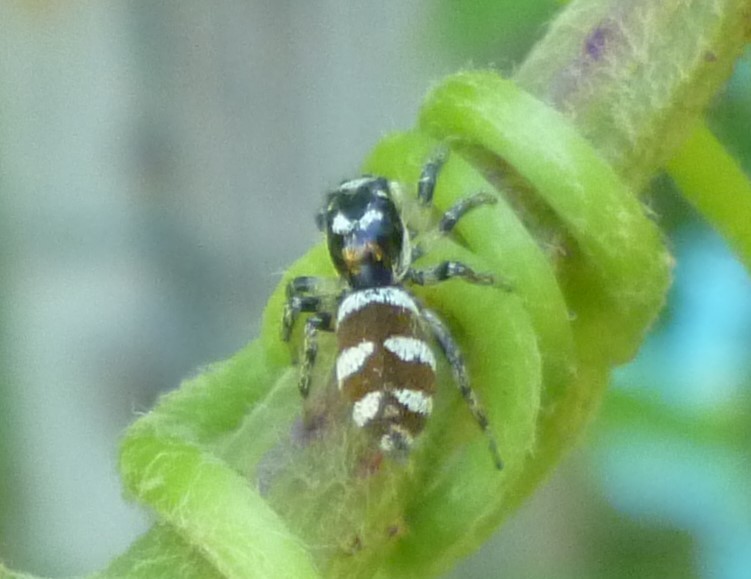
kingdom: Animalia
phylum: Arthropoda
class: Arachnida
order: Araneae
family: Salticidae
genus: Salticus
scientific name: Salticus scenicus
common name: Zebra jumper
